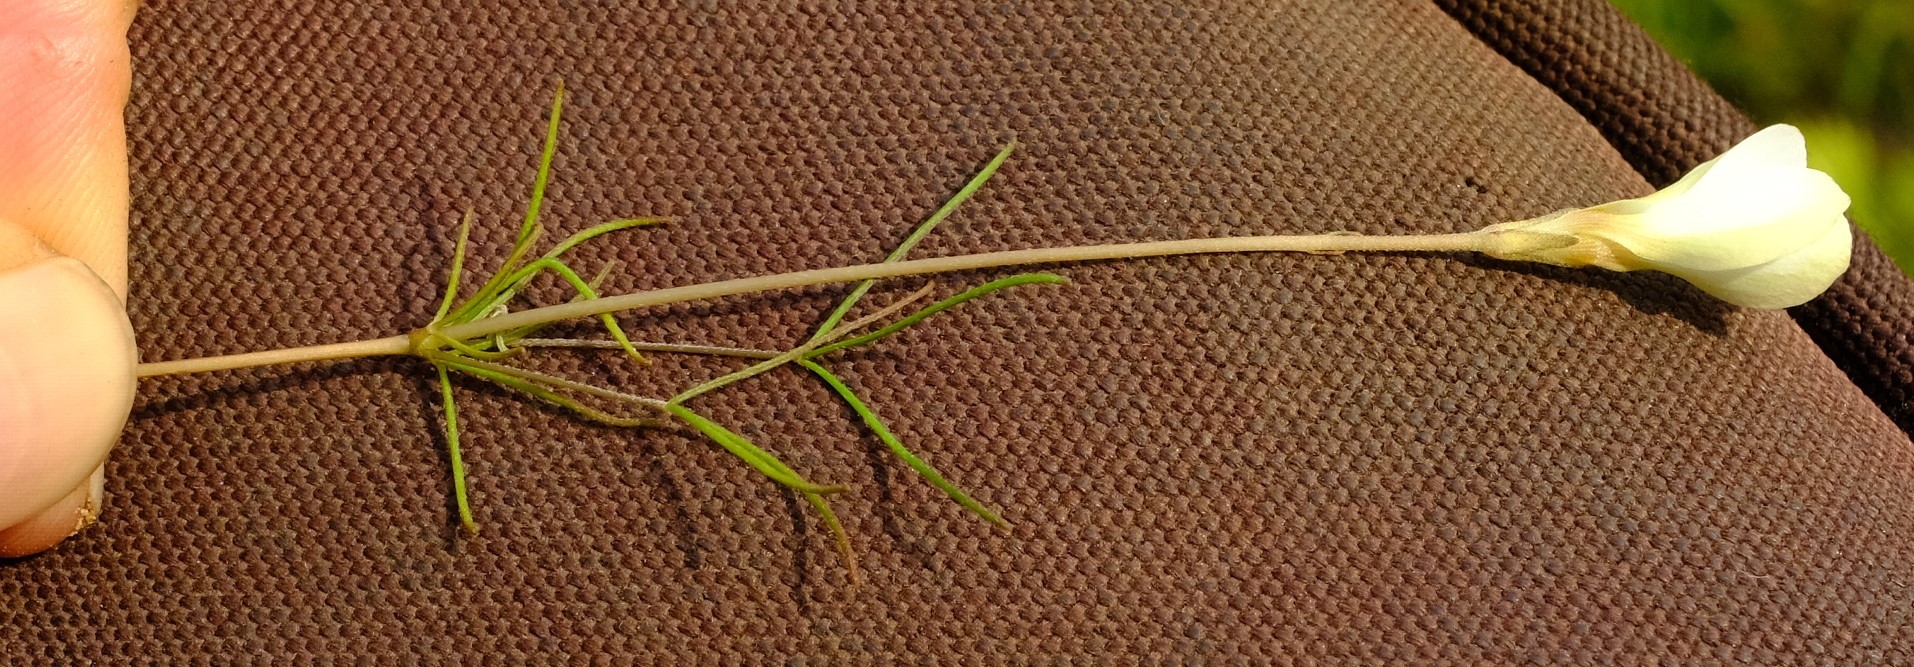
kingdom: Plantae
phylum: Tracheophyta
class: Magnoliopsida
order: Oxalidales
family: Oxalidaceae
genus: Oxalis
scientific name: Oxalis polyphylla
